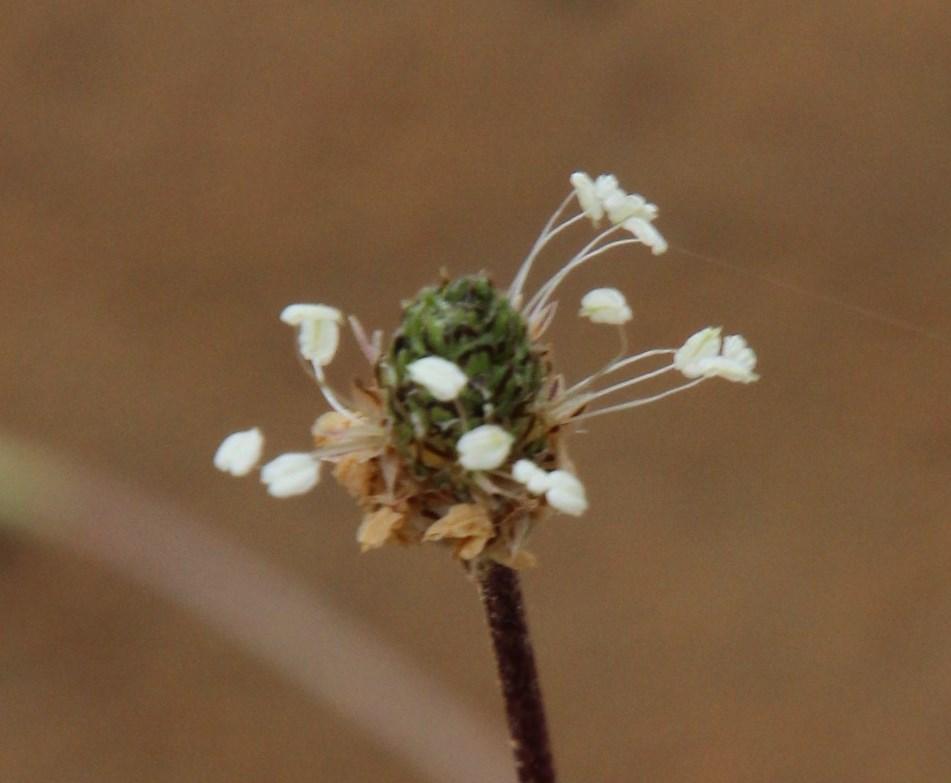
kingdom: Plantae
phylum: Tracheophyta
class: Magnoliopsida
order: Lamiales
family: Plantaginaceae
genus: Plantago
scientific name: Plantago lanceolata
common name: Ribwort plantain
